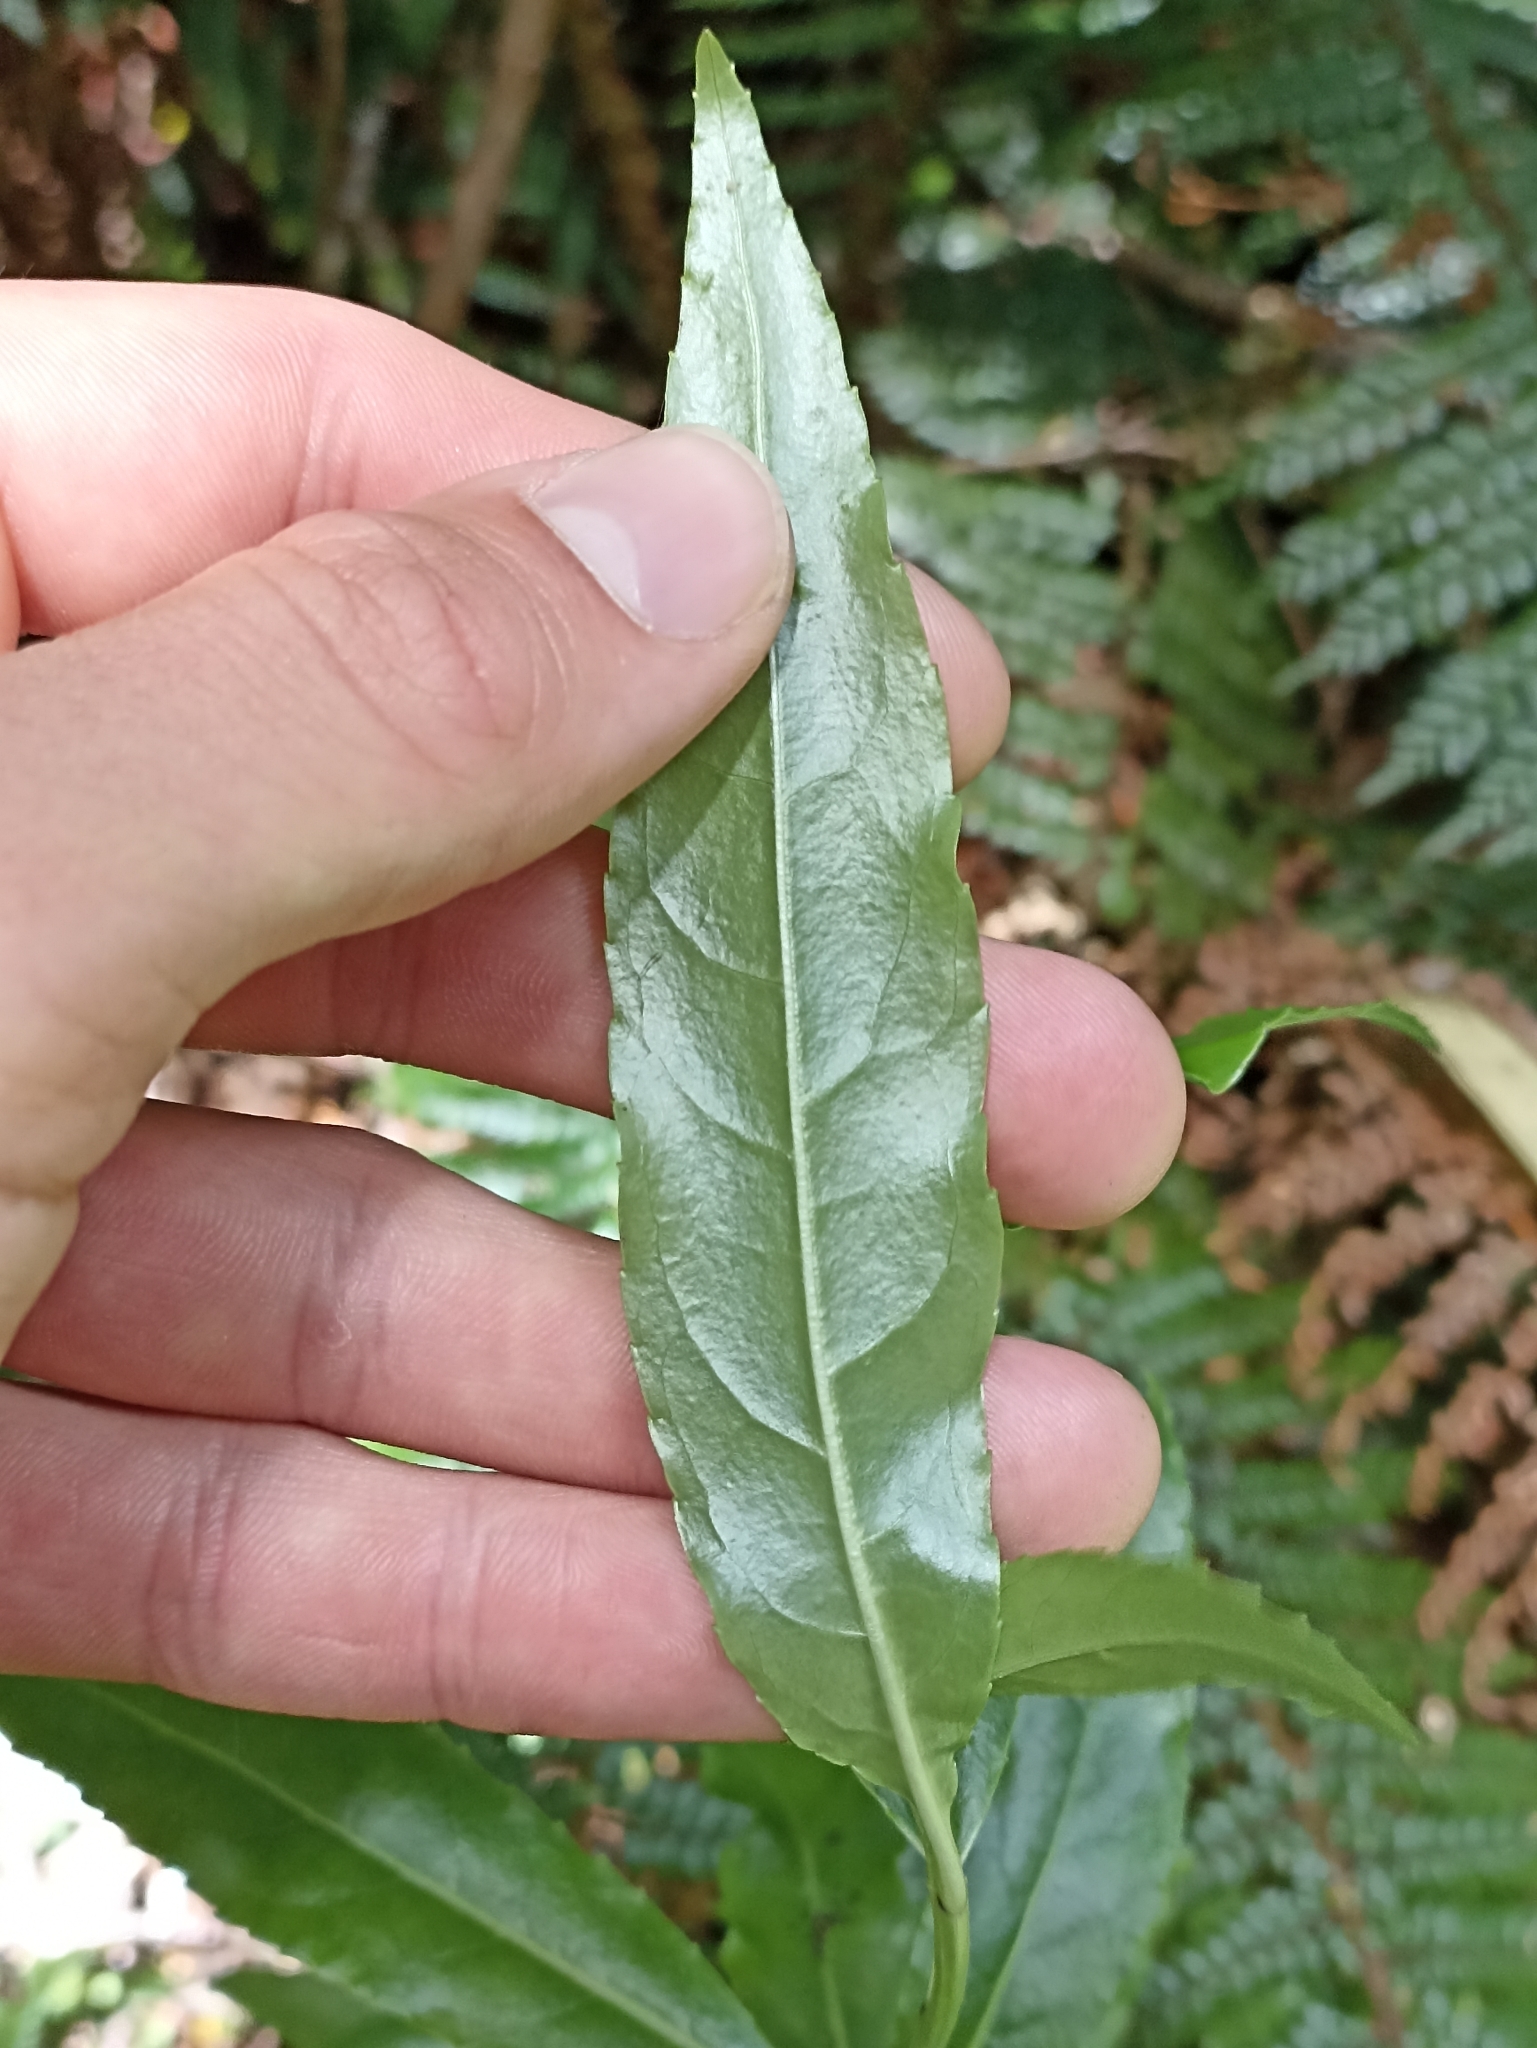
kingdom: Plantae
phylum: Tracheophyta
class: Magnoliopsida
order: Malpighiales
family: Violaceae
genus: Melicytus
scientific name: Melicytus lanceolatus
